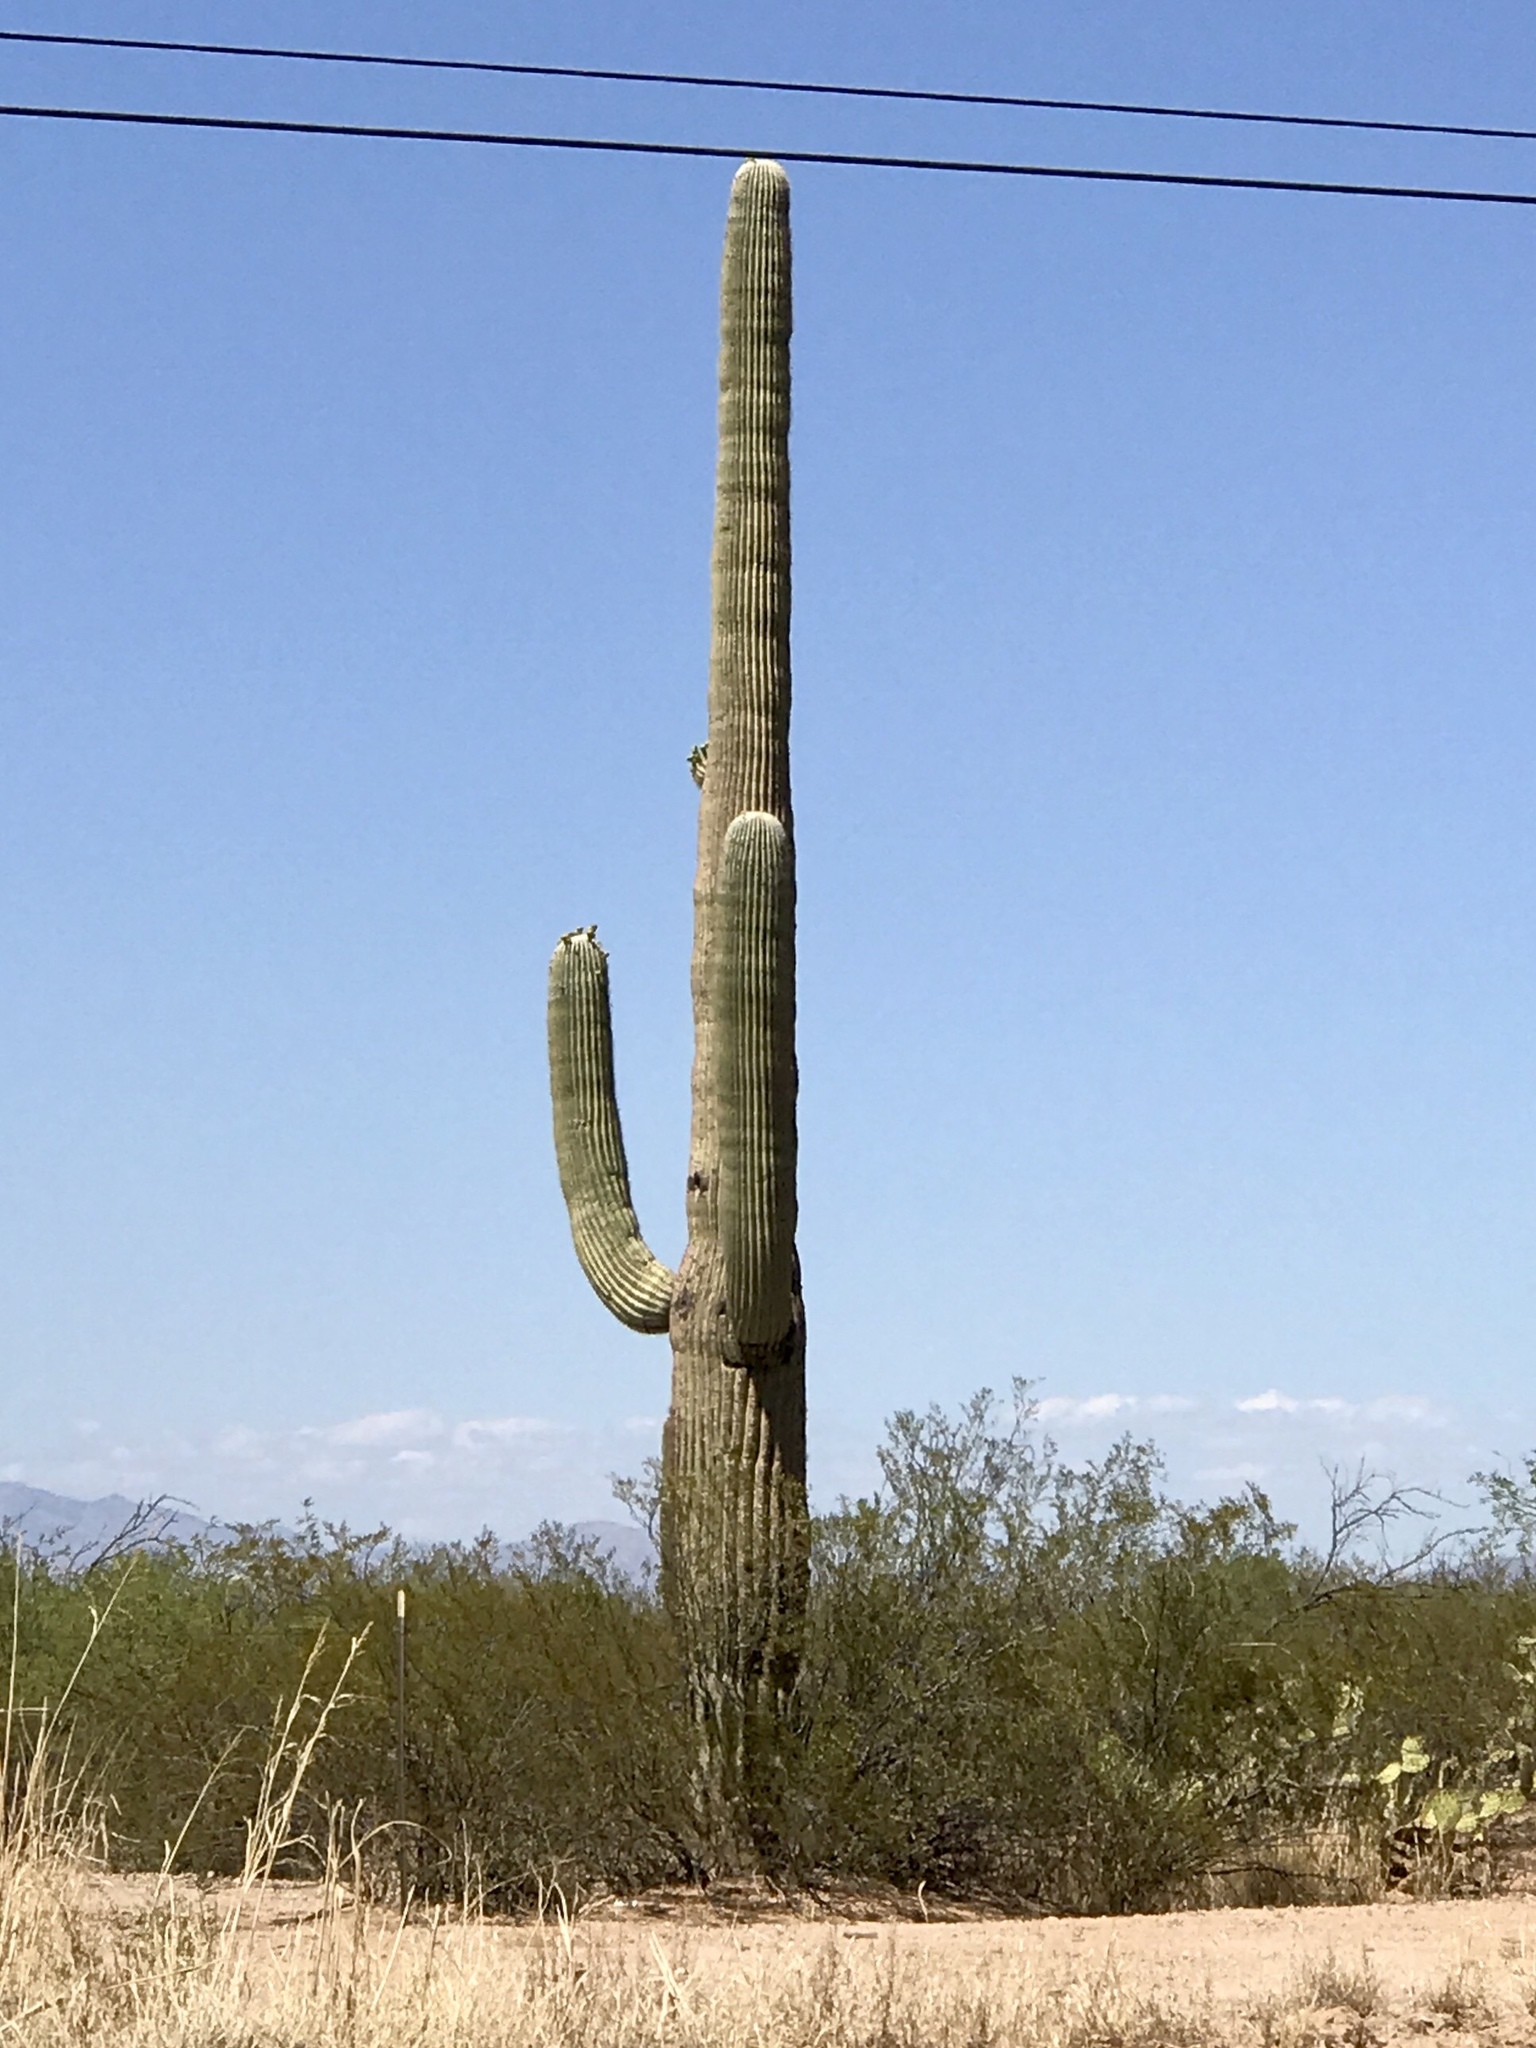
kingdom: Plantae
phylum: Tracheophyta
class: Magnoliopsida
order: Caryophyllales
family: Cactaceae
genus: Carnegiea
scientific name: Carnegiea gigantea
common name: Saguaro
